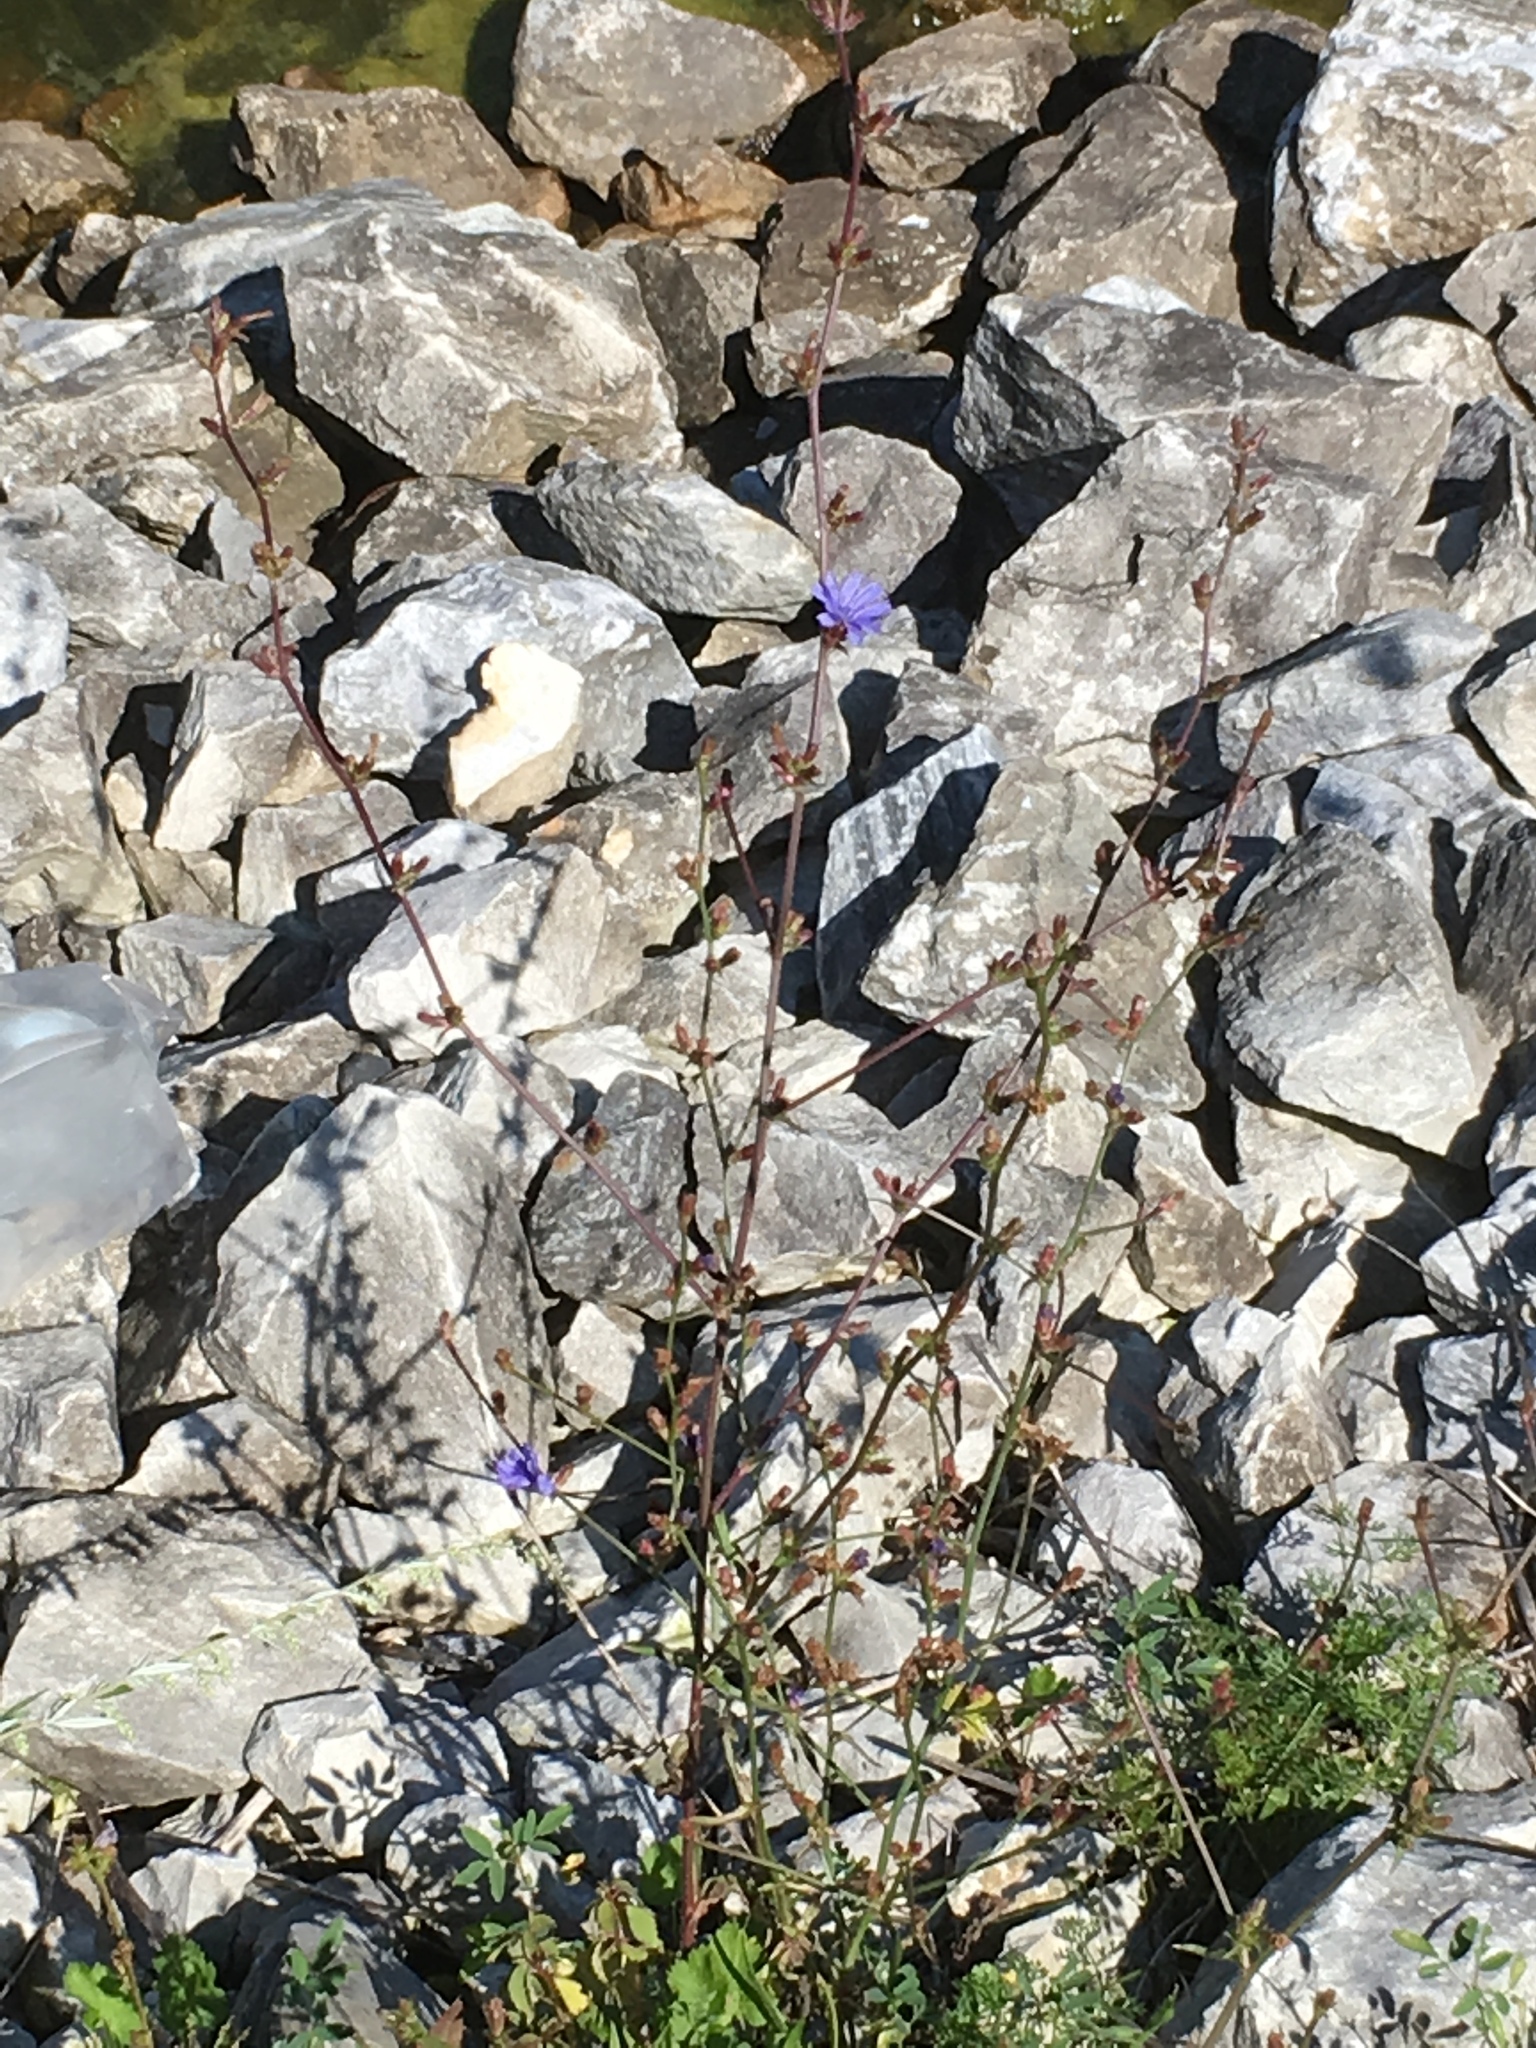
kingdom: Plantae
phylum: Tracheophyta
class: Magnoliopsida
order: Asterales
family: Asteraceae
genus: Cichorium
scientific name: Cichorium intybus
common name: Chicory
